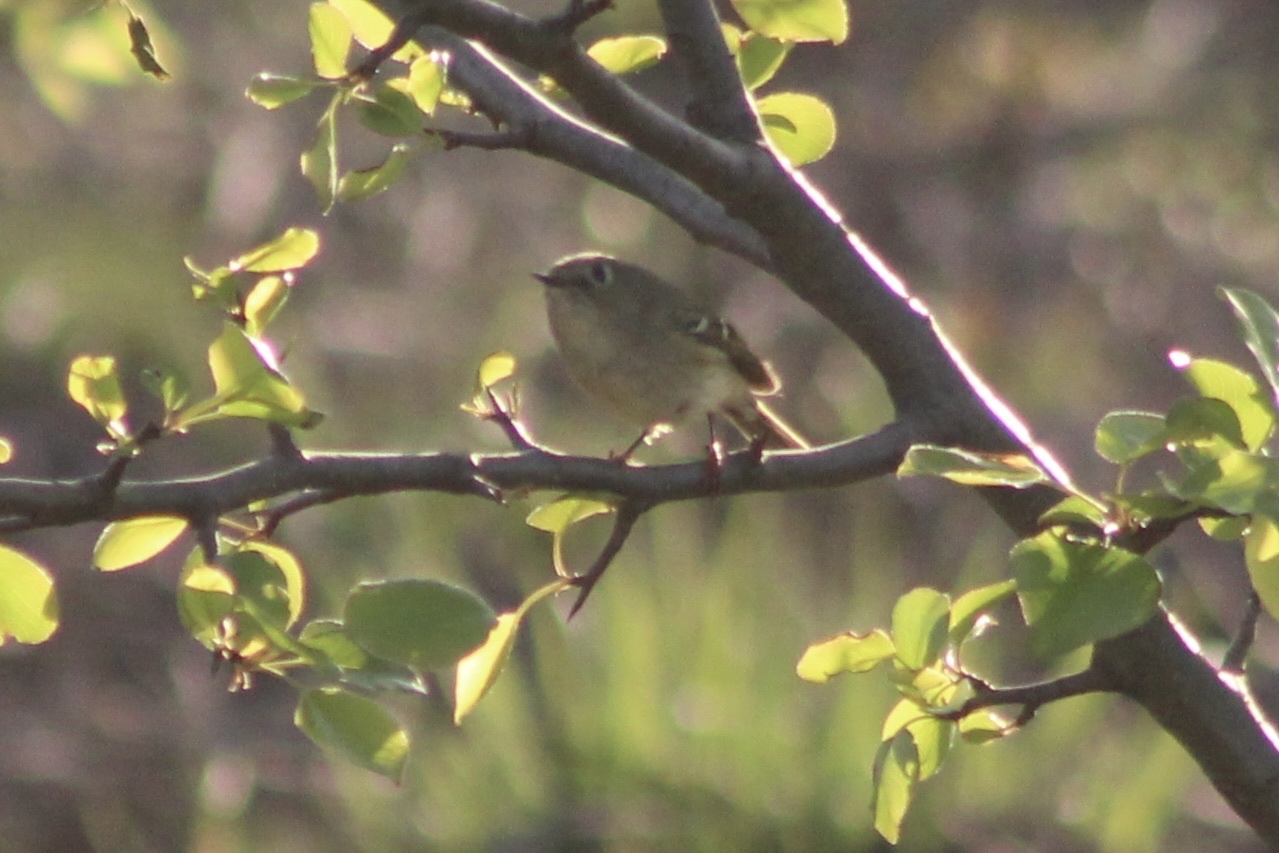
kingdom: Animalia
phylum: Chordata
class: Aves
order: Passeriformes
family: Regulidae
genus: Regulus
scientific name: Regulus calendula
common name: Ruby-crowned kinglet
